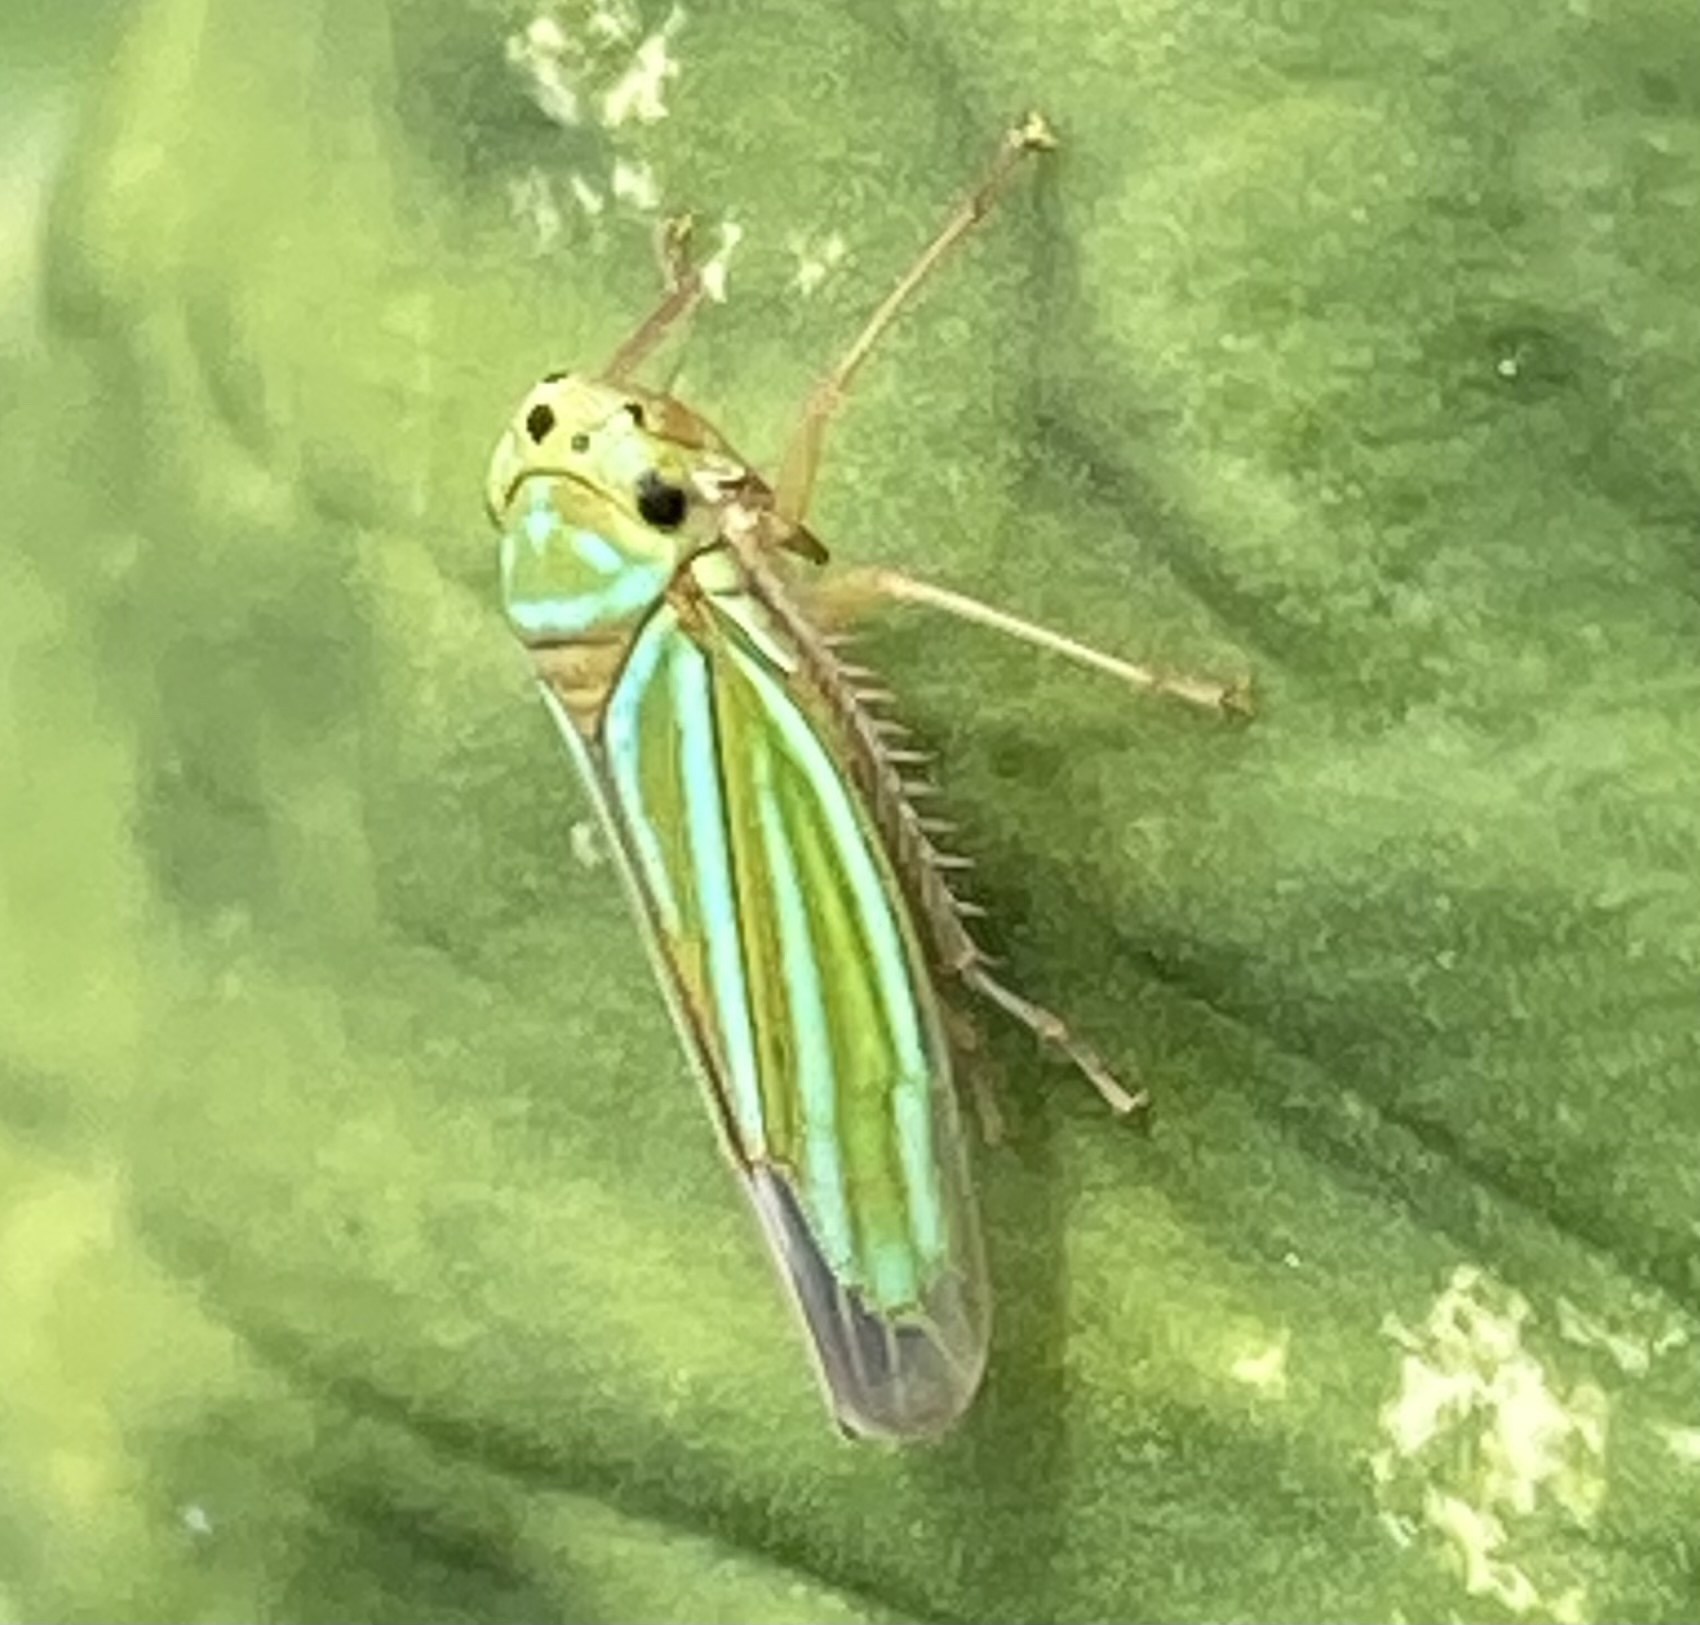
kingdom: Animalia
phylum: Arthropoda
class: Insecta
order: Hemiptera
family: Cicadellidae
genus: Chlorogonalia
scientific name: Chlorogonalia coeruleovittata
